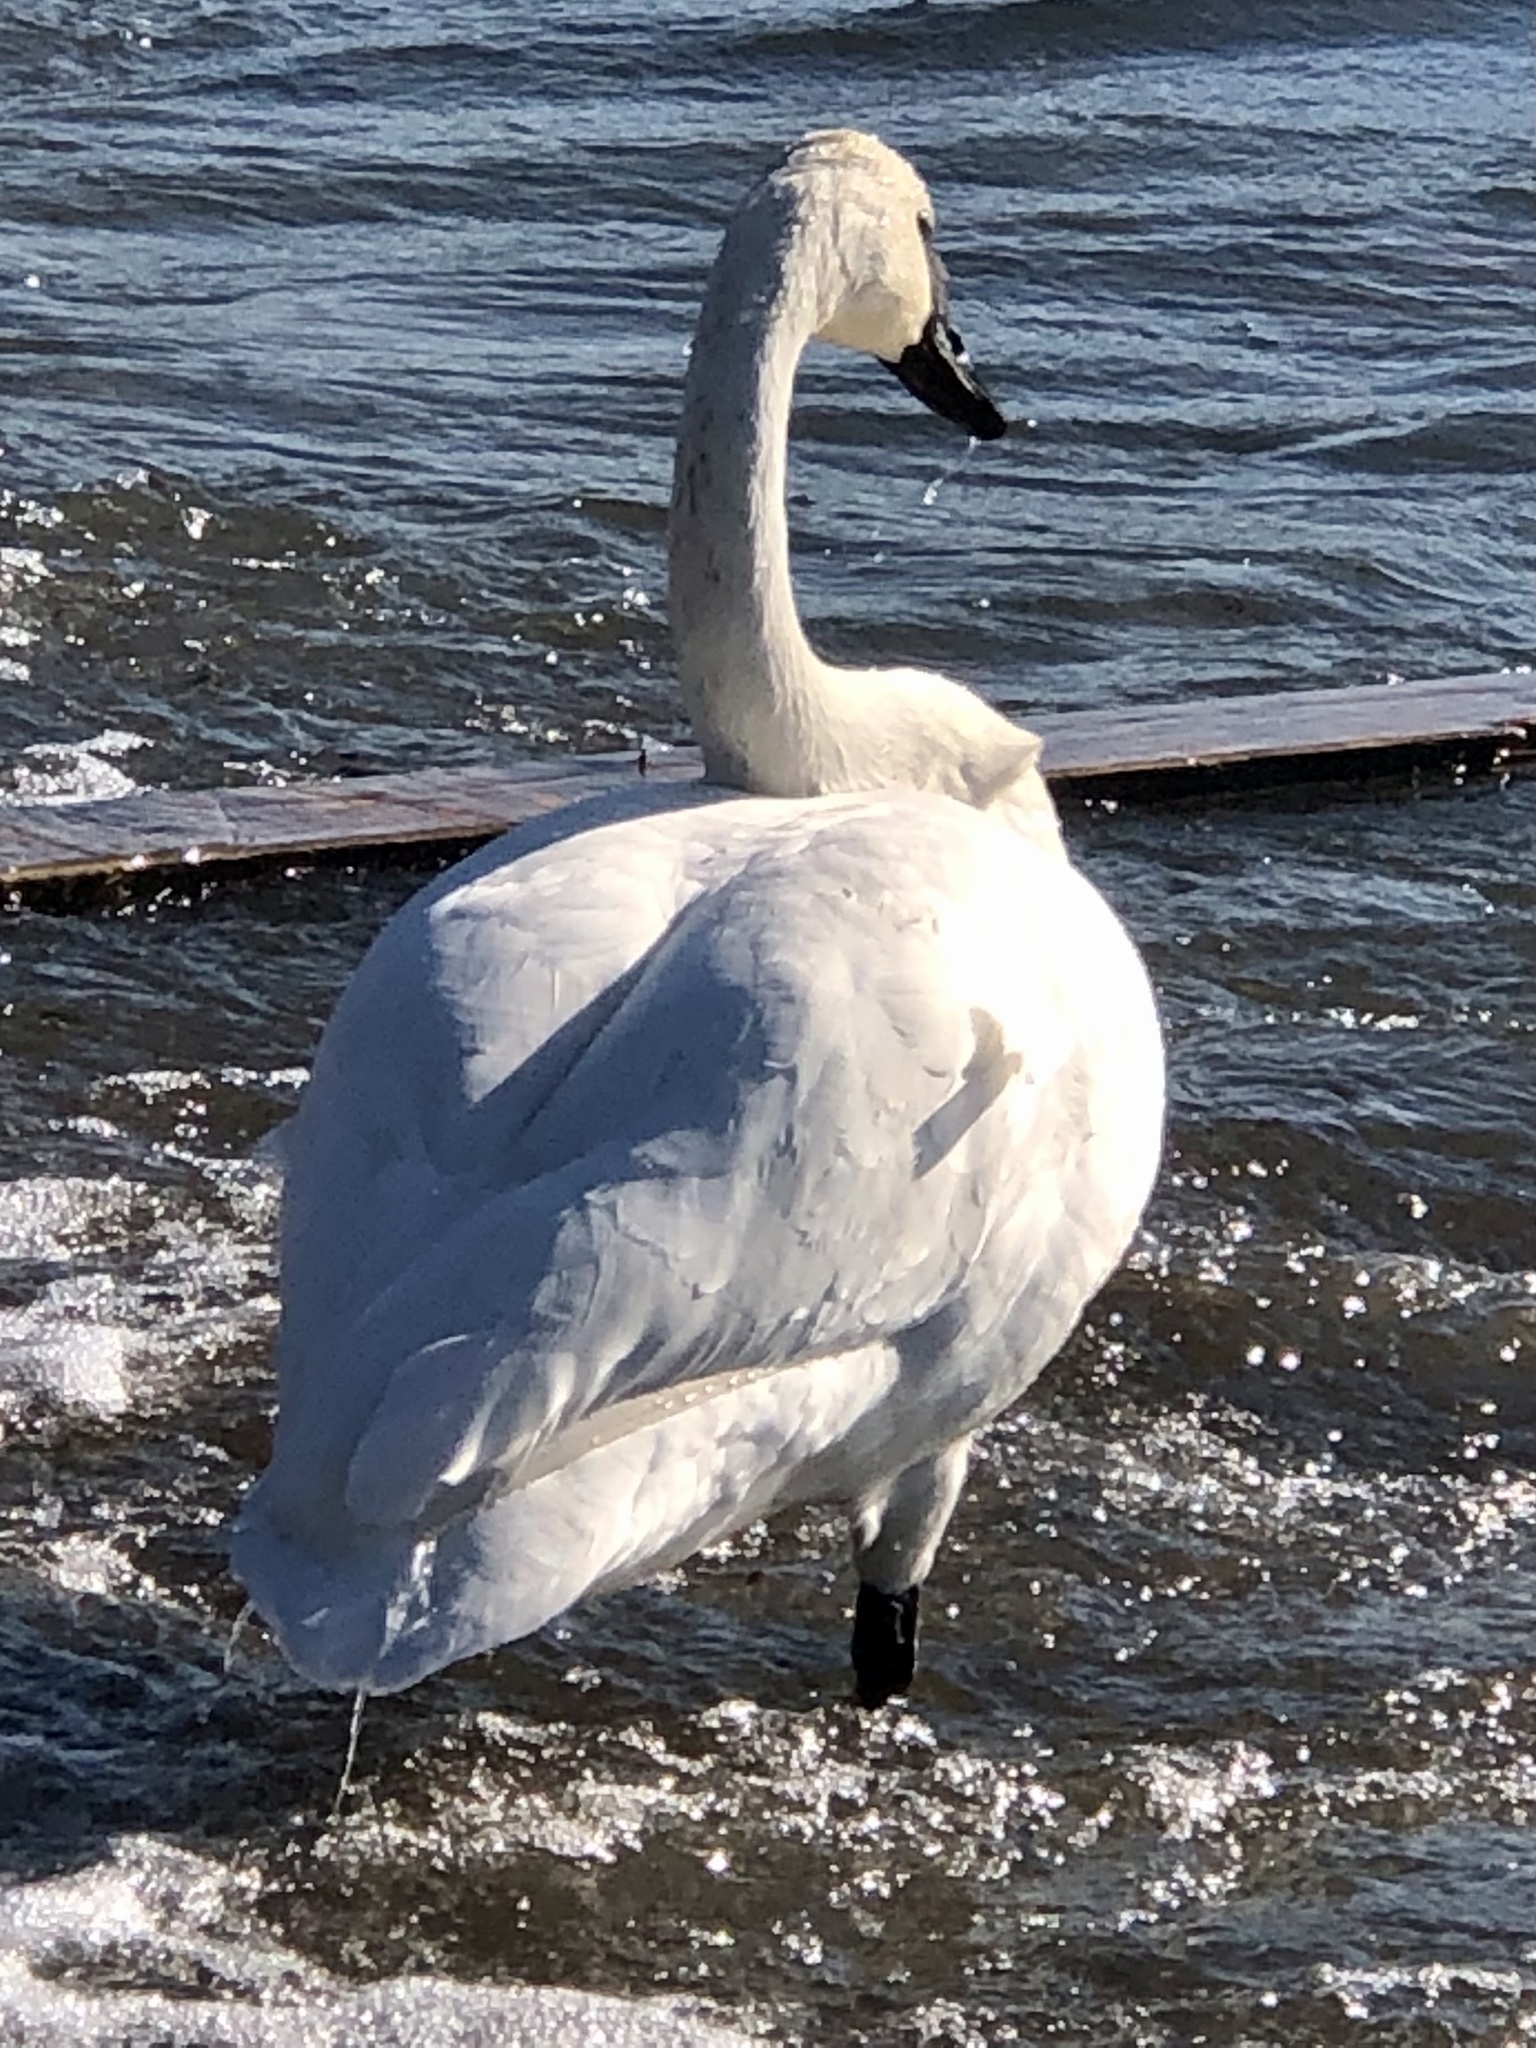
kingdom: Animalia
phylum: Chordata
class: Aves
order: Anseriformes
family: Anatidae
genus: Cygnus
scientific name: Cygnus buccinator
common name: Trumpeter swan
